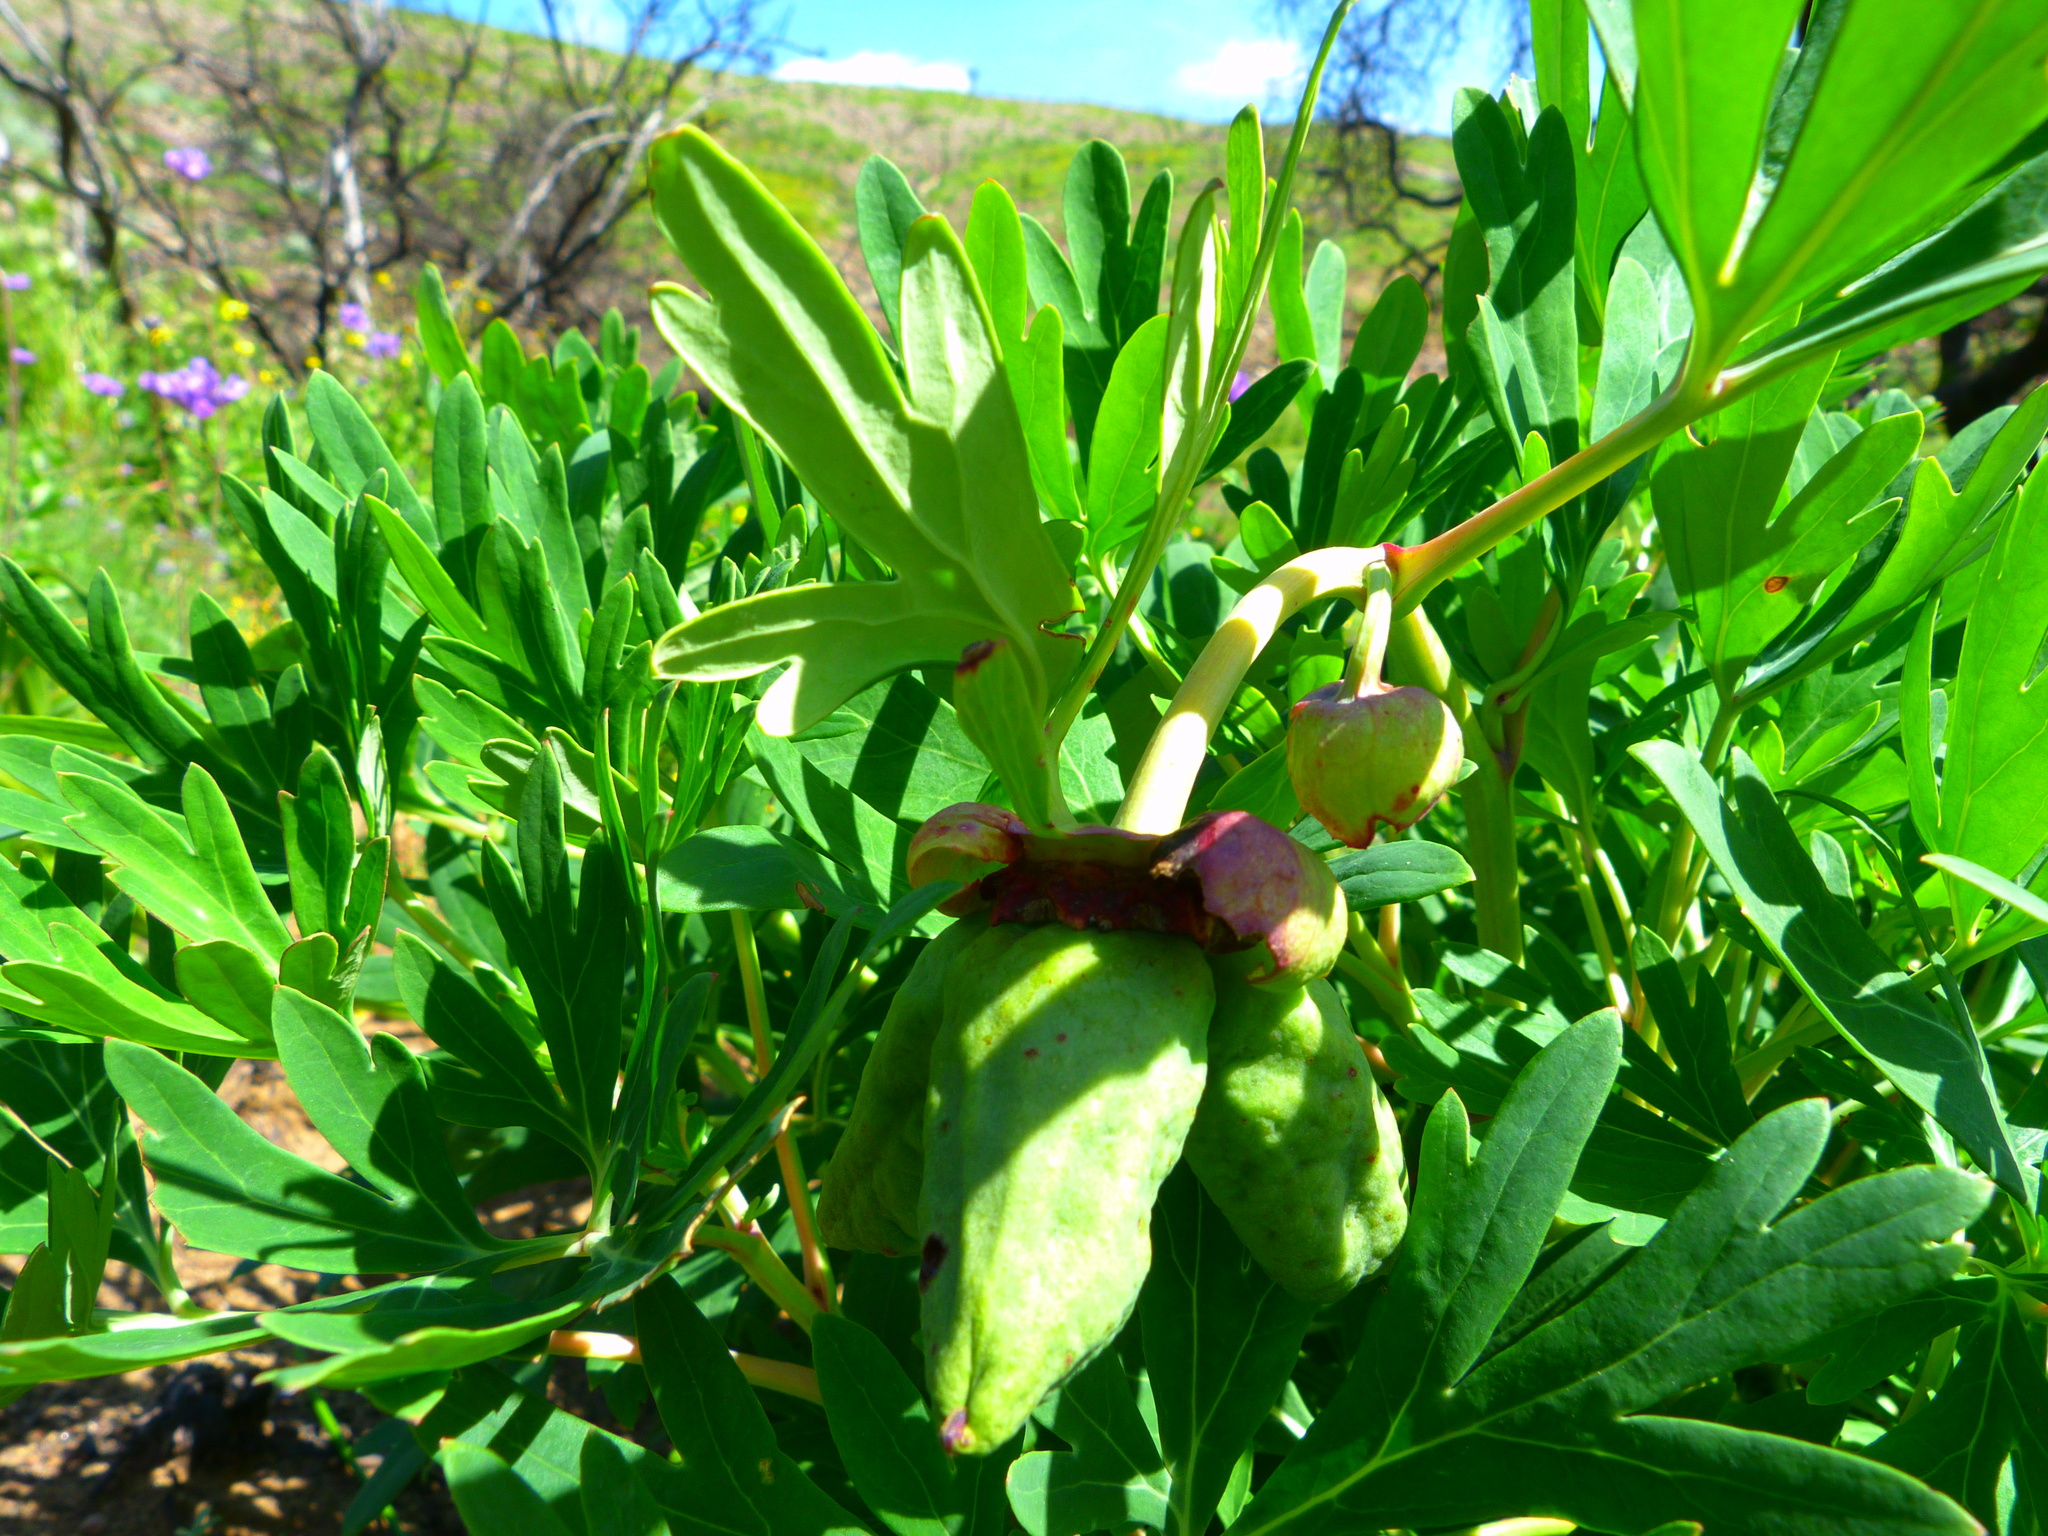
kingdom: Plantae
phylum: Tracheophyta
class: Magnoliopsida
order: Saxifragales
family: Paeoniaceae
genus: Paeonia
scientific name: Paeonia californica
